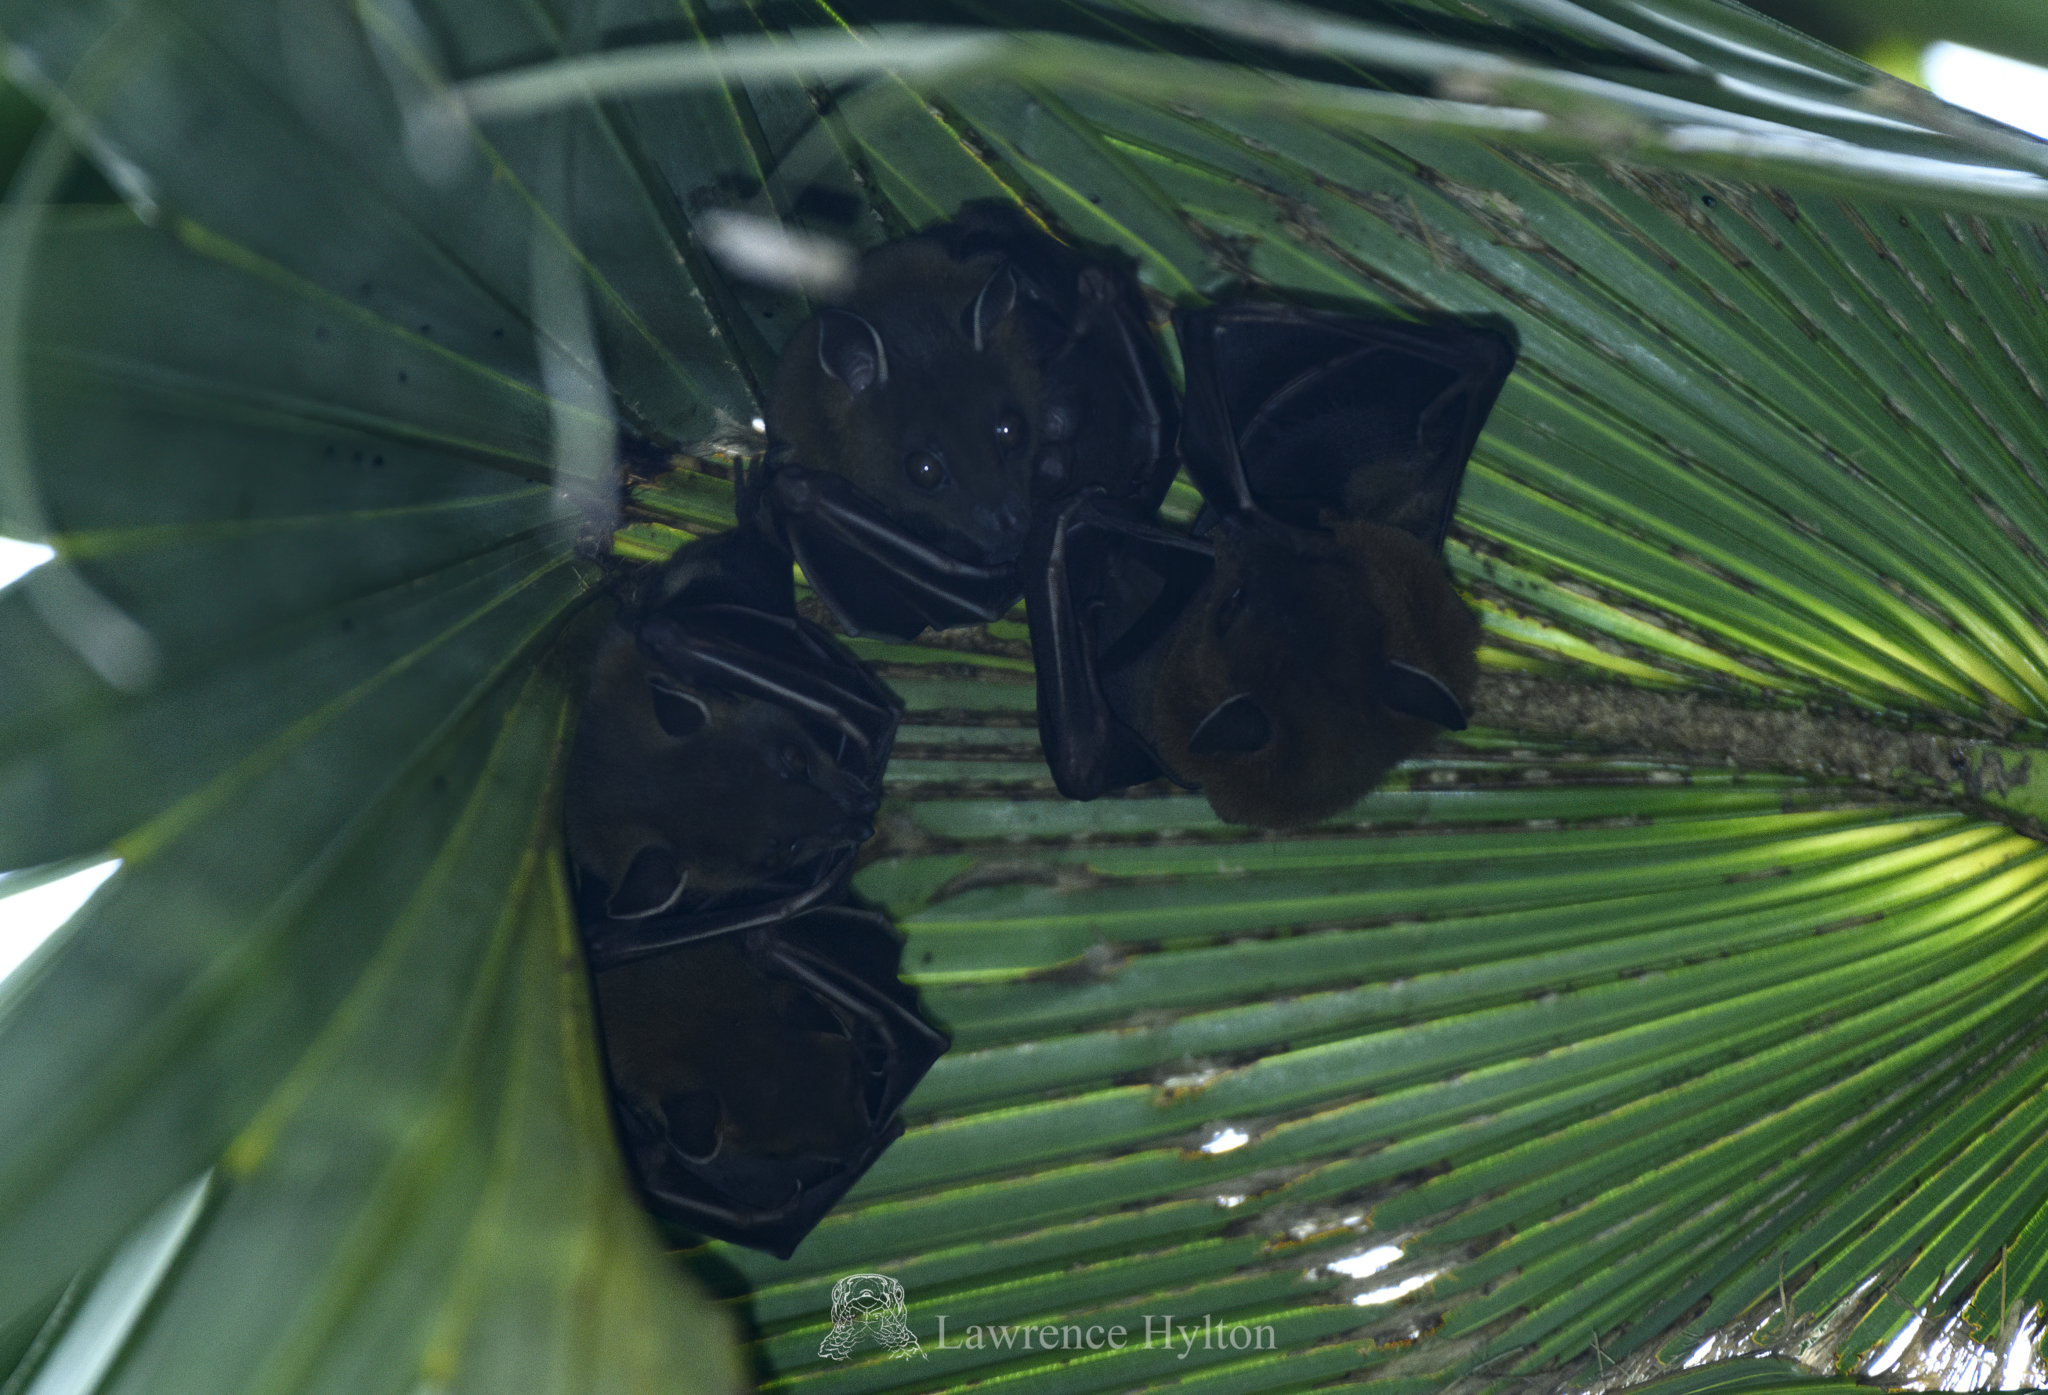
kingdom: Animalia
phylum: Chordata
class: Mammalia
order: Chiroptera
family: Pteropodidae
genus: Cynopterus
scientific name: Cynopterus sphinx
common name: Greater short-nosed fruit bat
